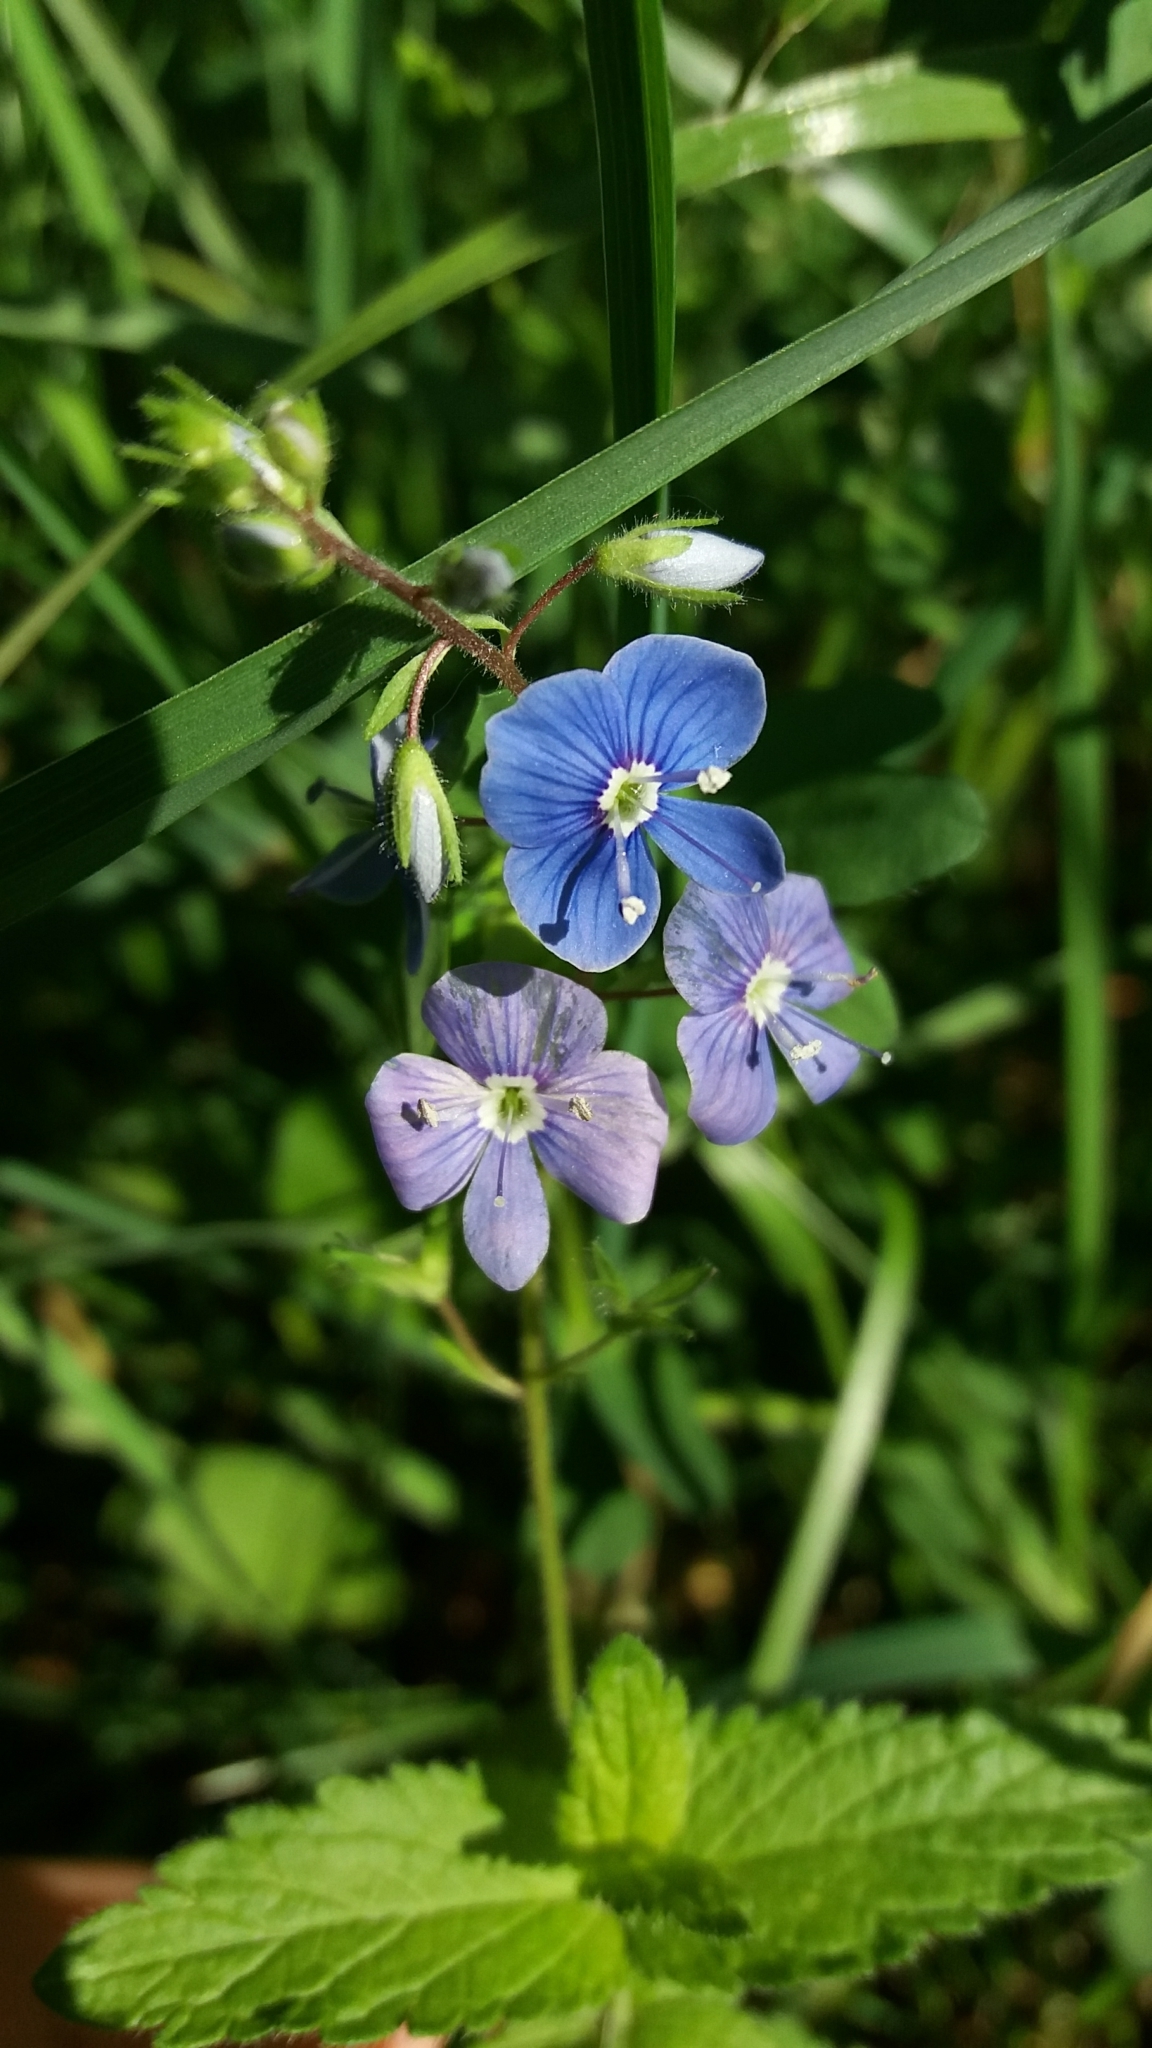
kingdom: Plantae
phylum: Tracheophyta
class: Magnoliopsida
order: Lamiales
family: Plantaginaceae
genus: Veronica
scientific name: Veronica chamaedrys
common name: Germander speedwell
